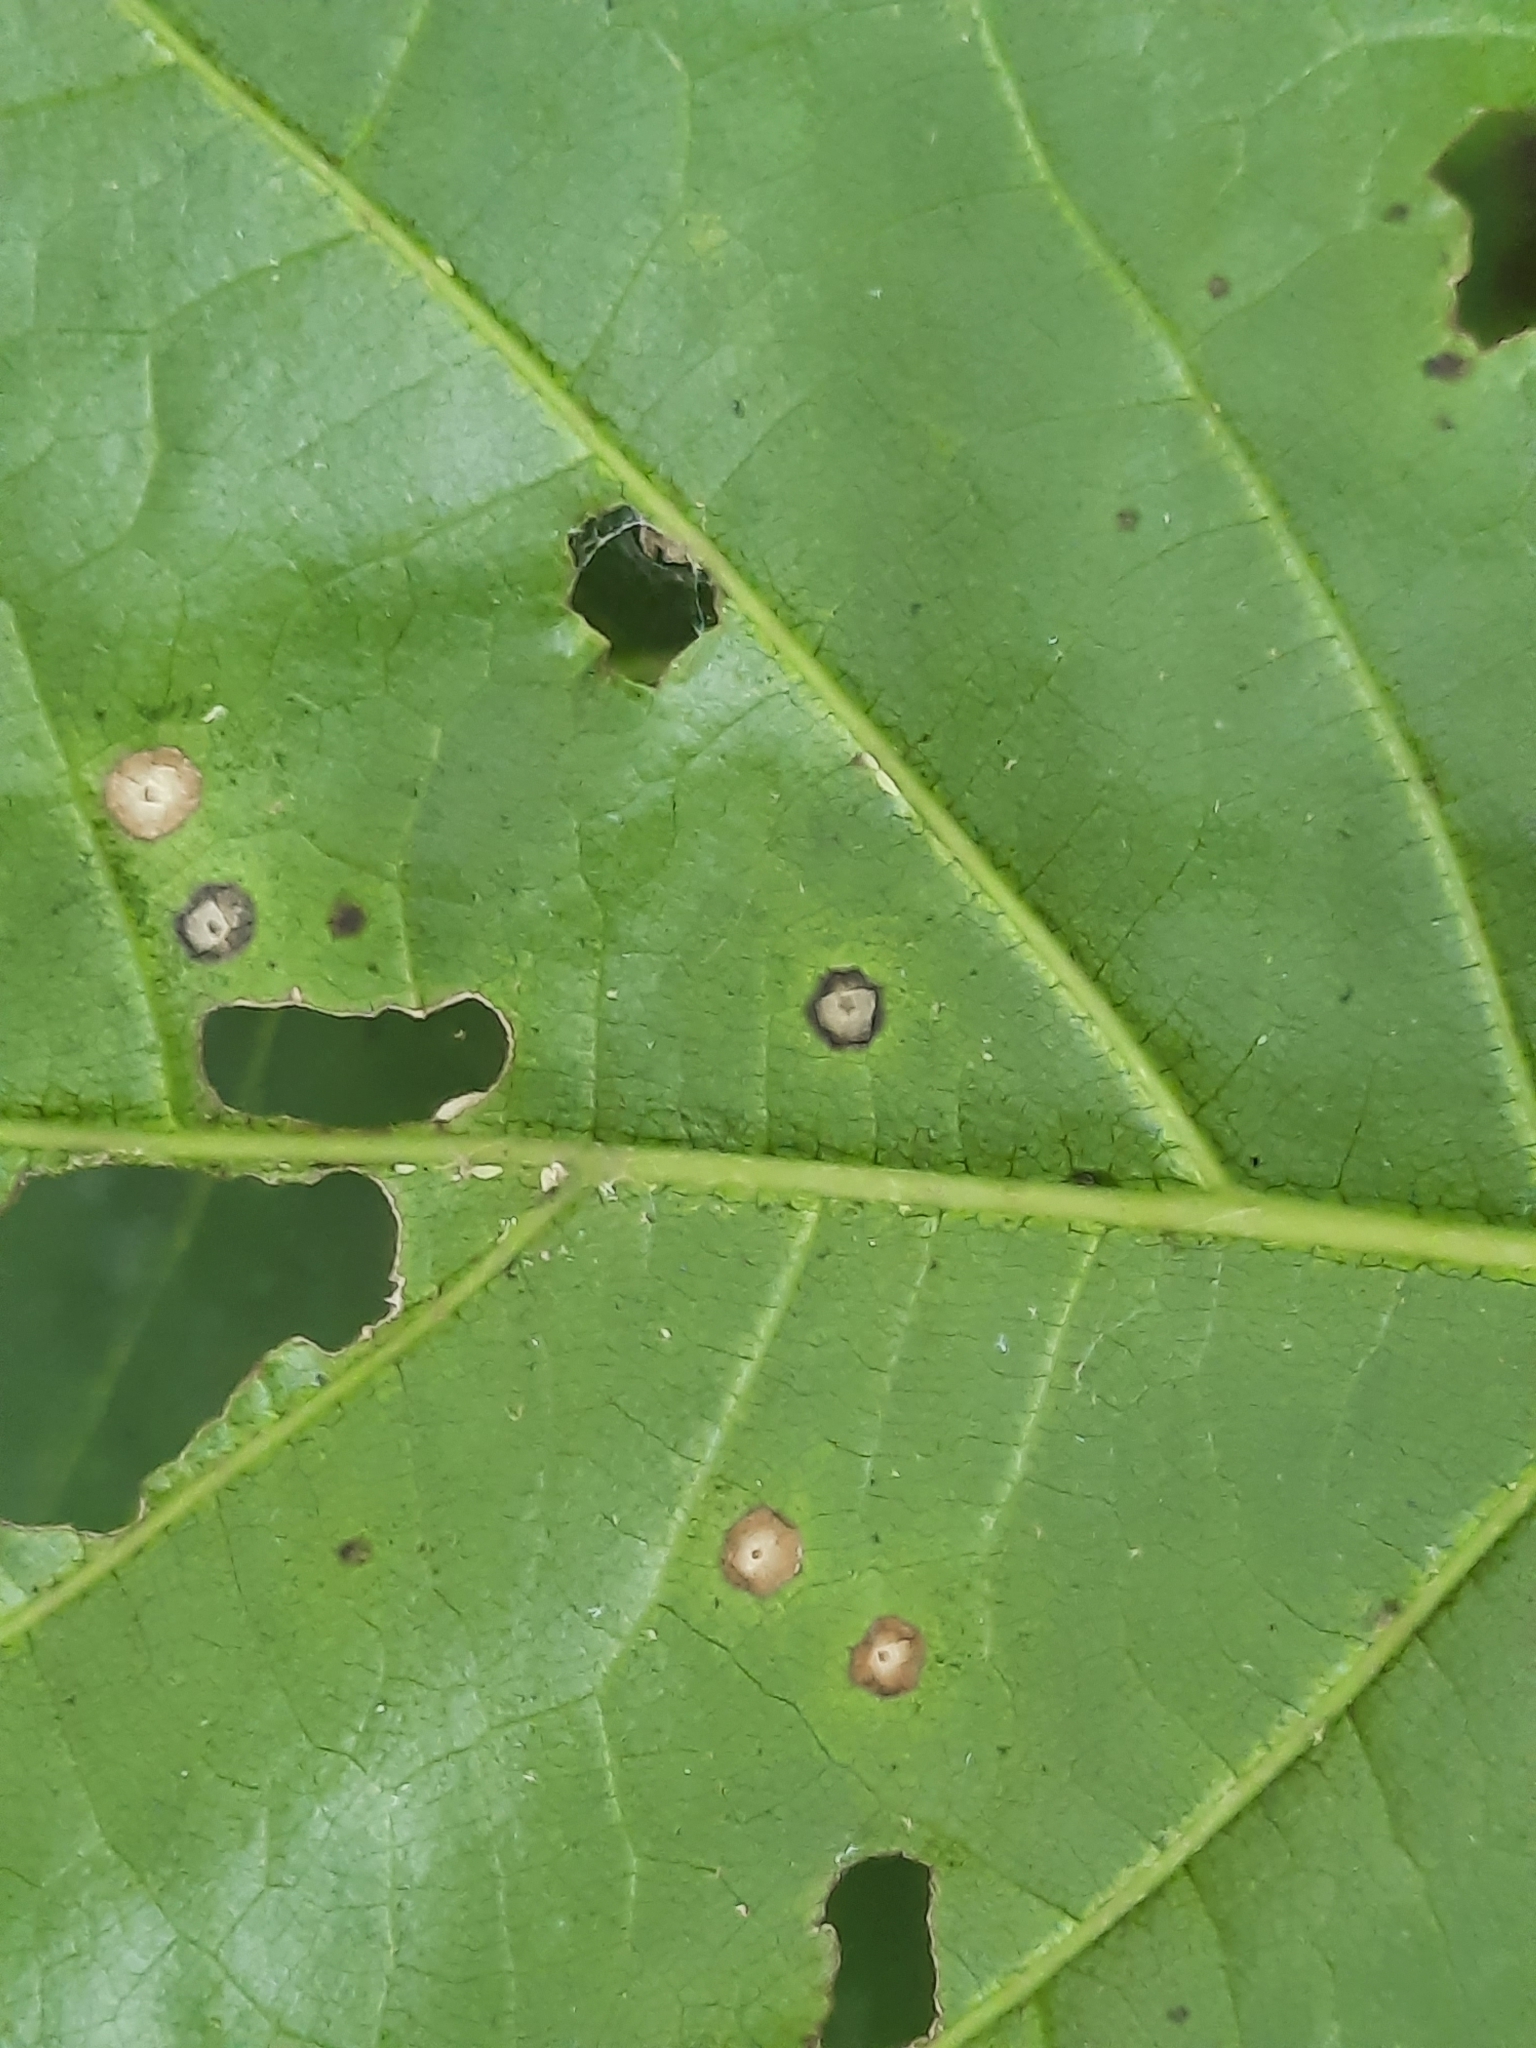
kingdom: Animalia
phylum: Arthropoda
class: Insecta
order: Hymenoptera
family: Cynipidae
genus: Zopheroteras
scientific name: Zopheroteras
